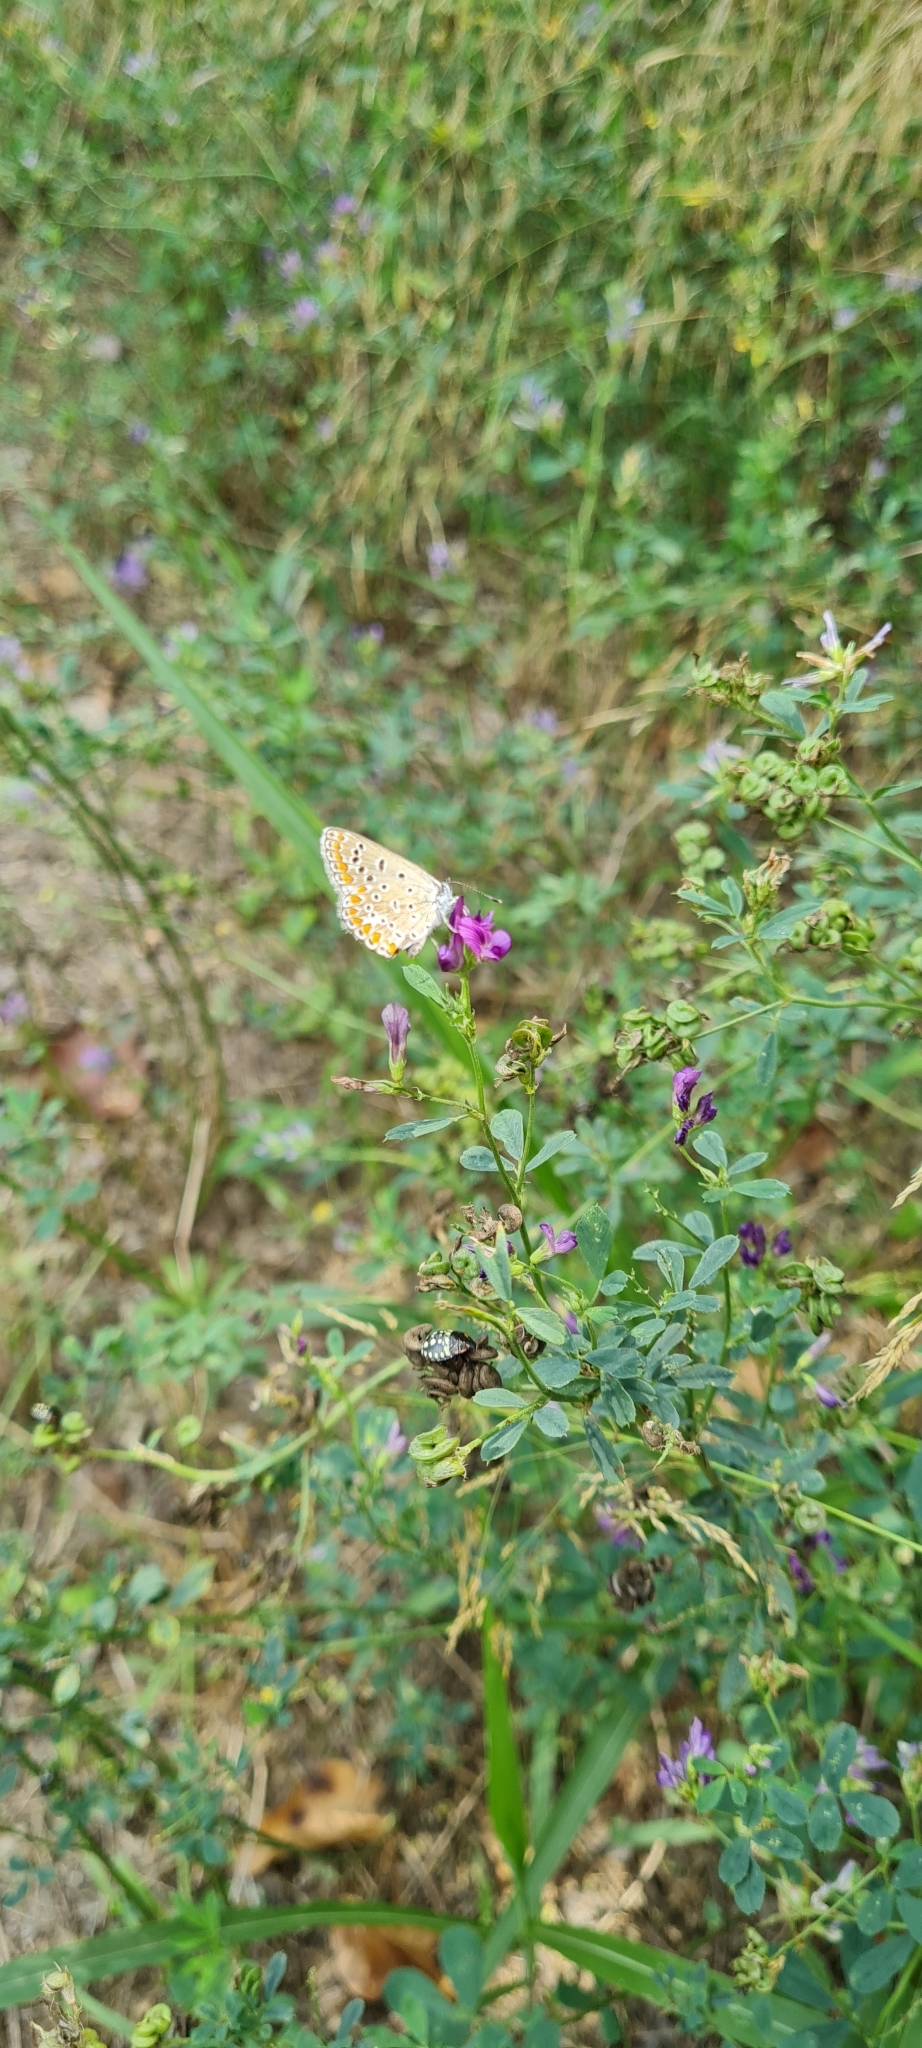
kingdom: Animalia
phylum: Arthropoda
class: Insecta
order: Lepidoptera
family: Lycaenidae
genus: Polyommatus
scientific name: Polyommatus icarus
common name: Common blue
